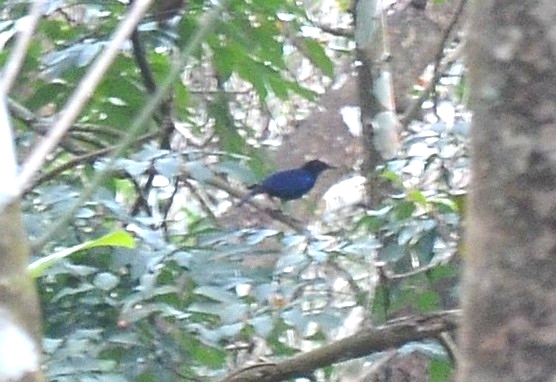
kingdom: Animalia
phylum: Chordata
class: Aves
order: Passeriformes
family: Muscicapidae
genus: Myophonus
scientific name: Myophonus horsfieldii
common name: Malabar whistling-thrush
